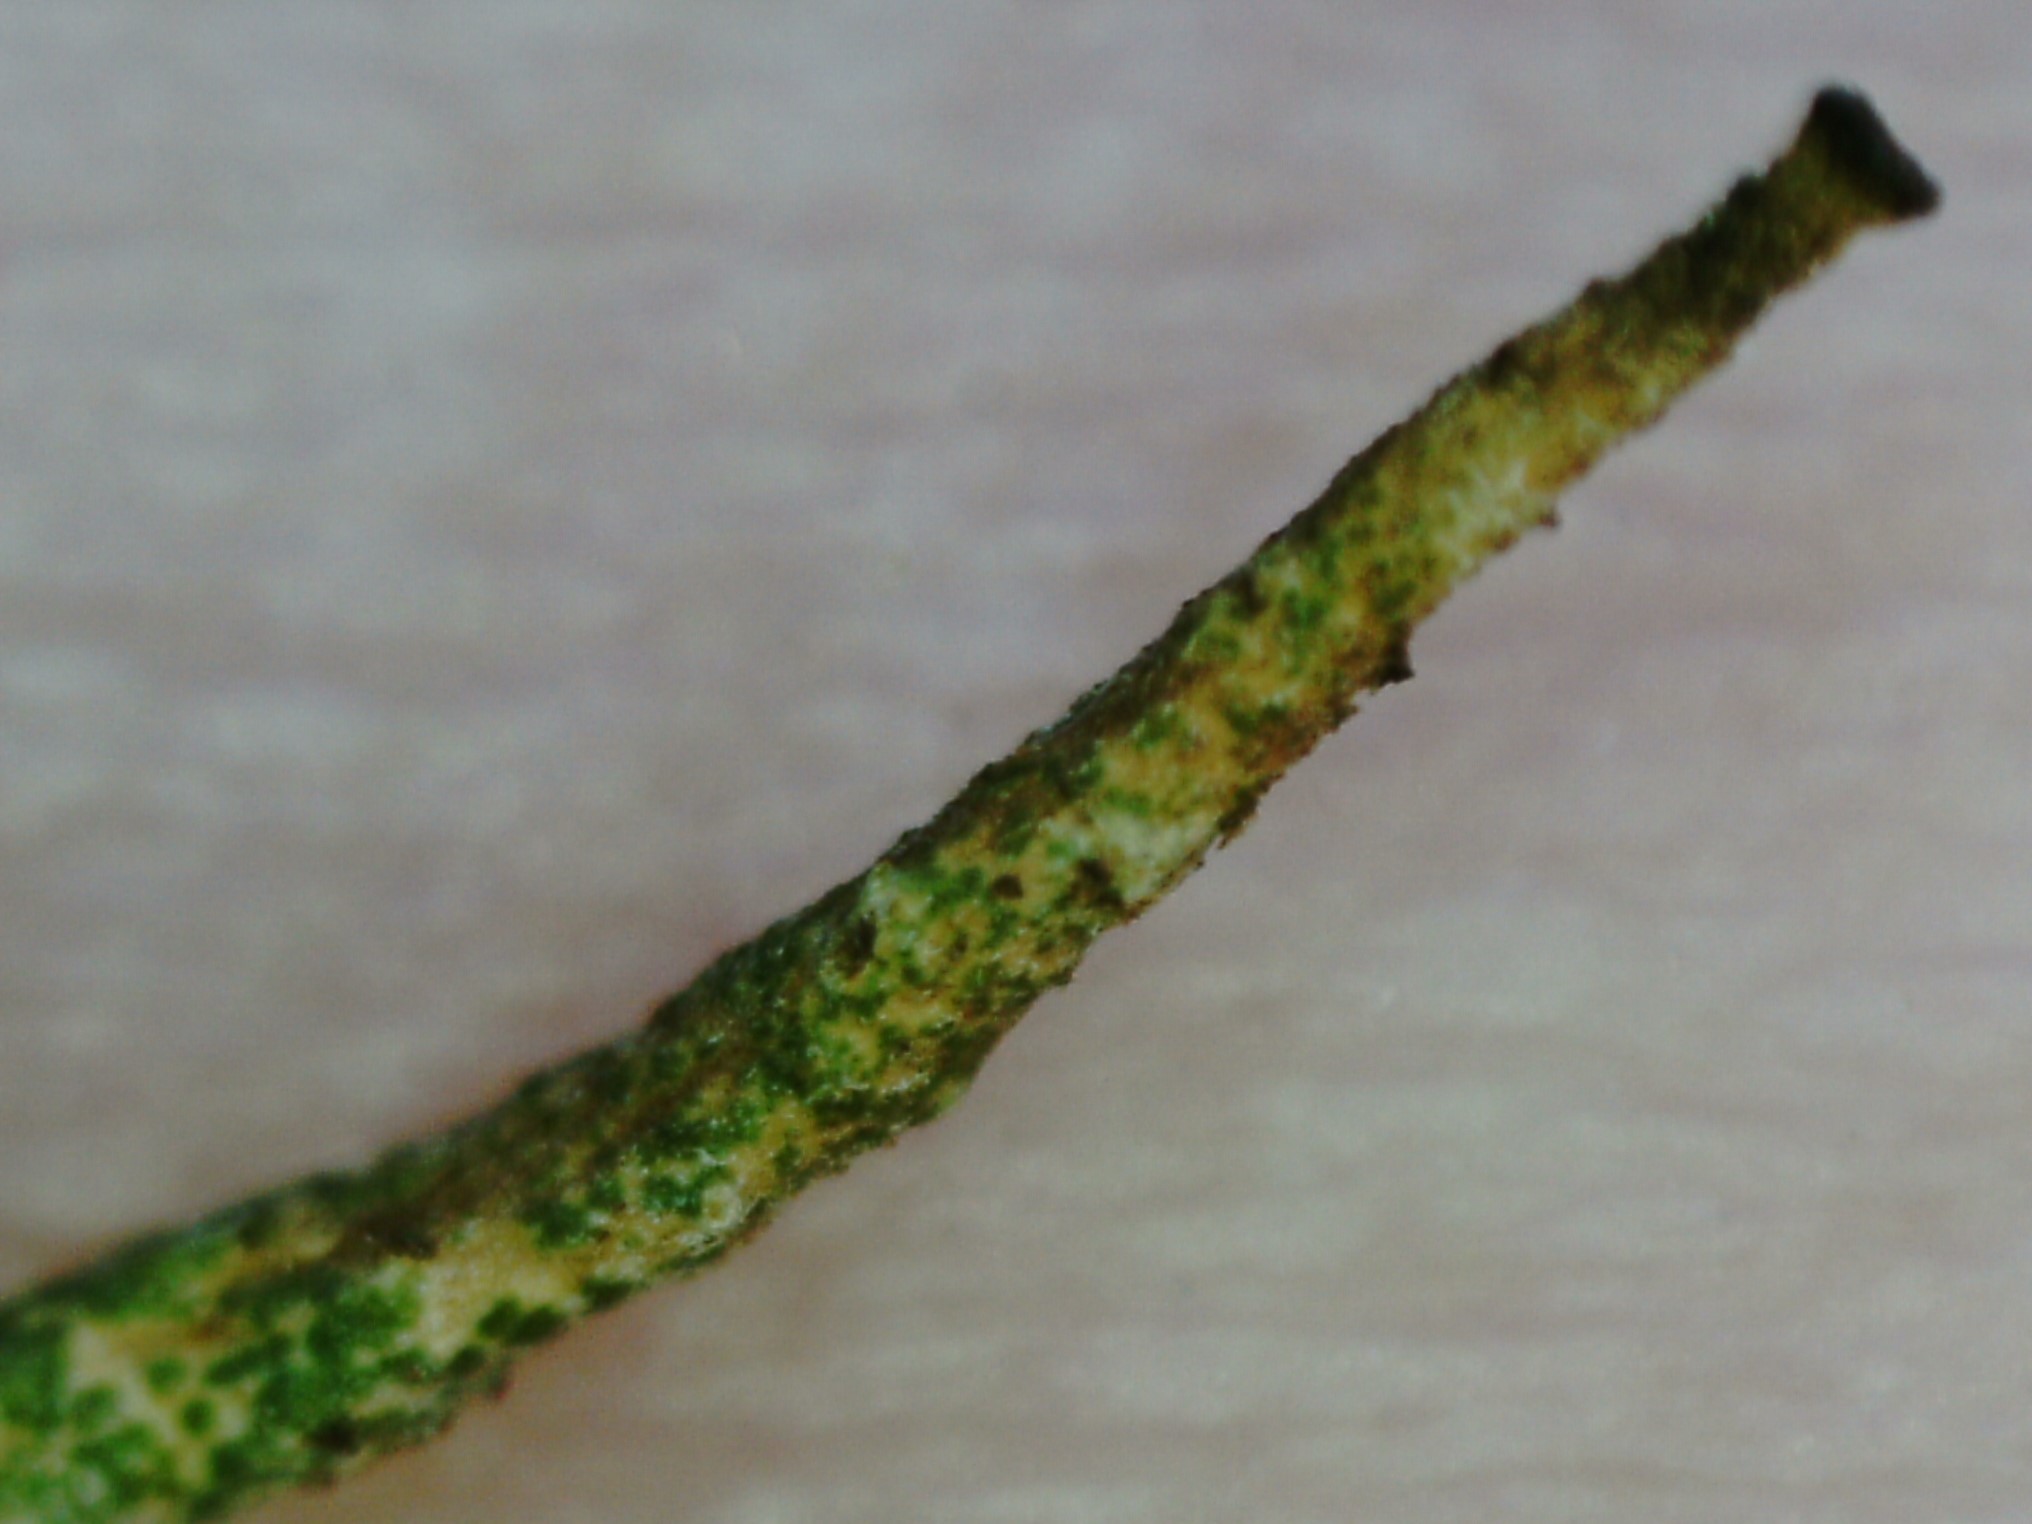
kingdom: Fungi
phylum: Ascomycota
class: Lecanoromycetes
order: Lecanorales
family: Cladoniaceae
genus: Cladonia
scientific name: Cladonia gracilis
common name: Smooth clad lichen
